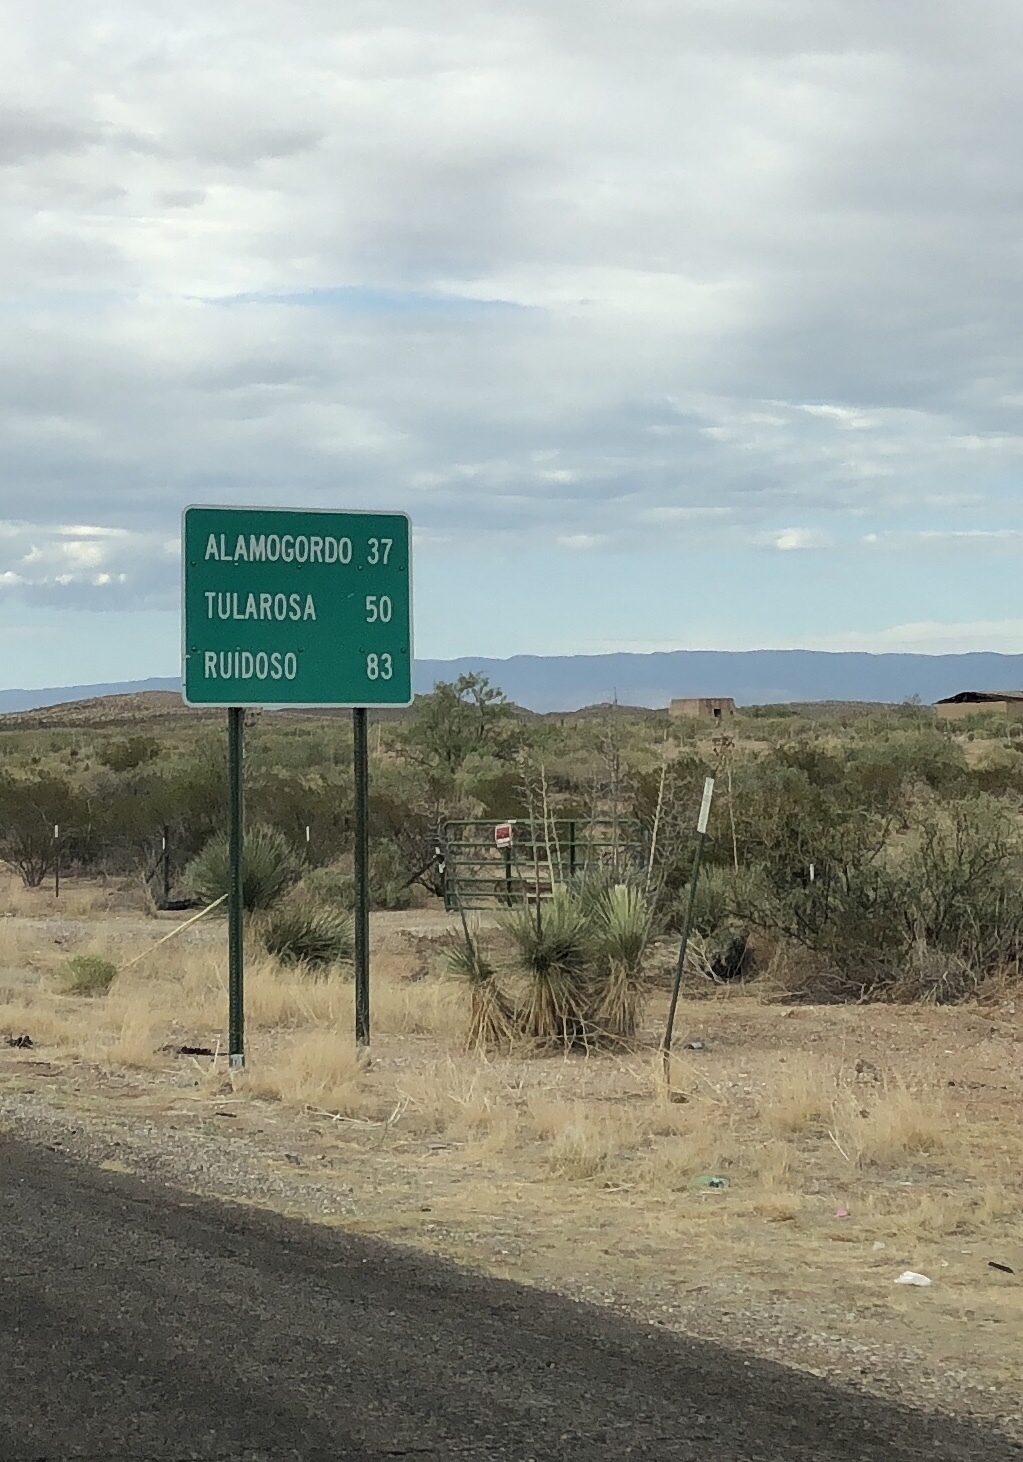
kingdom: Plantae
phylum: Tracheophyta
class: Liliopsida
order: Asparagales
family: Asparagaceae
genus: Yucca
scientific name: Yucca elata
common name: Palmella
